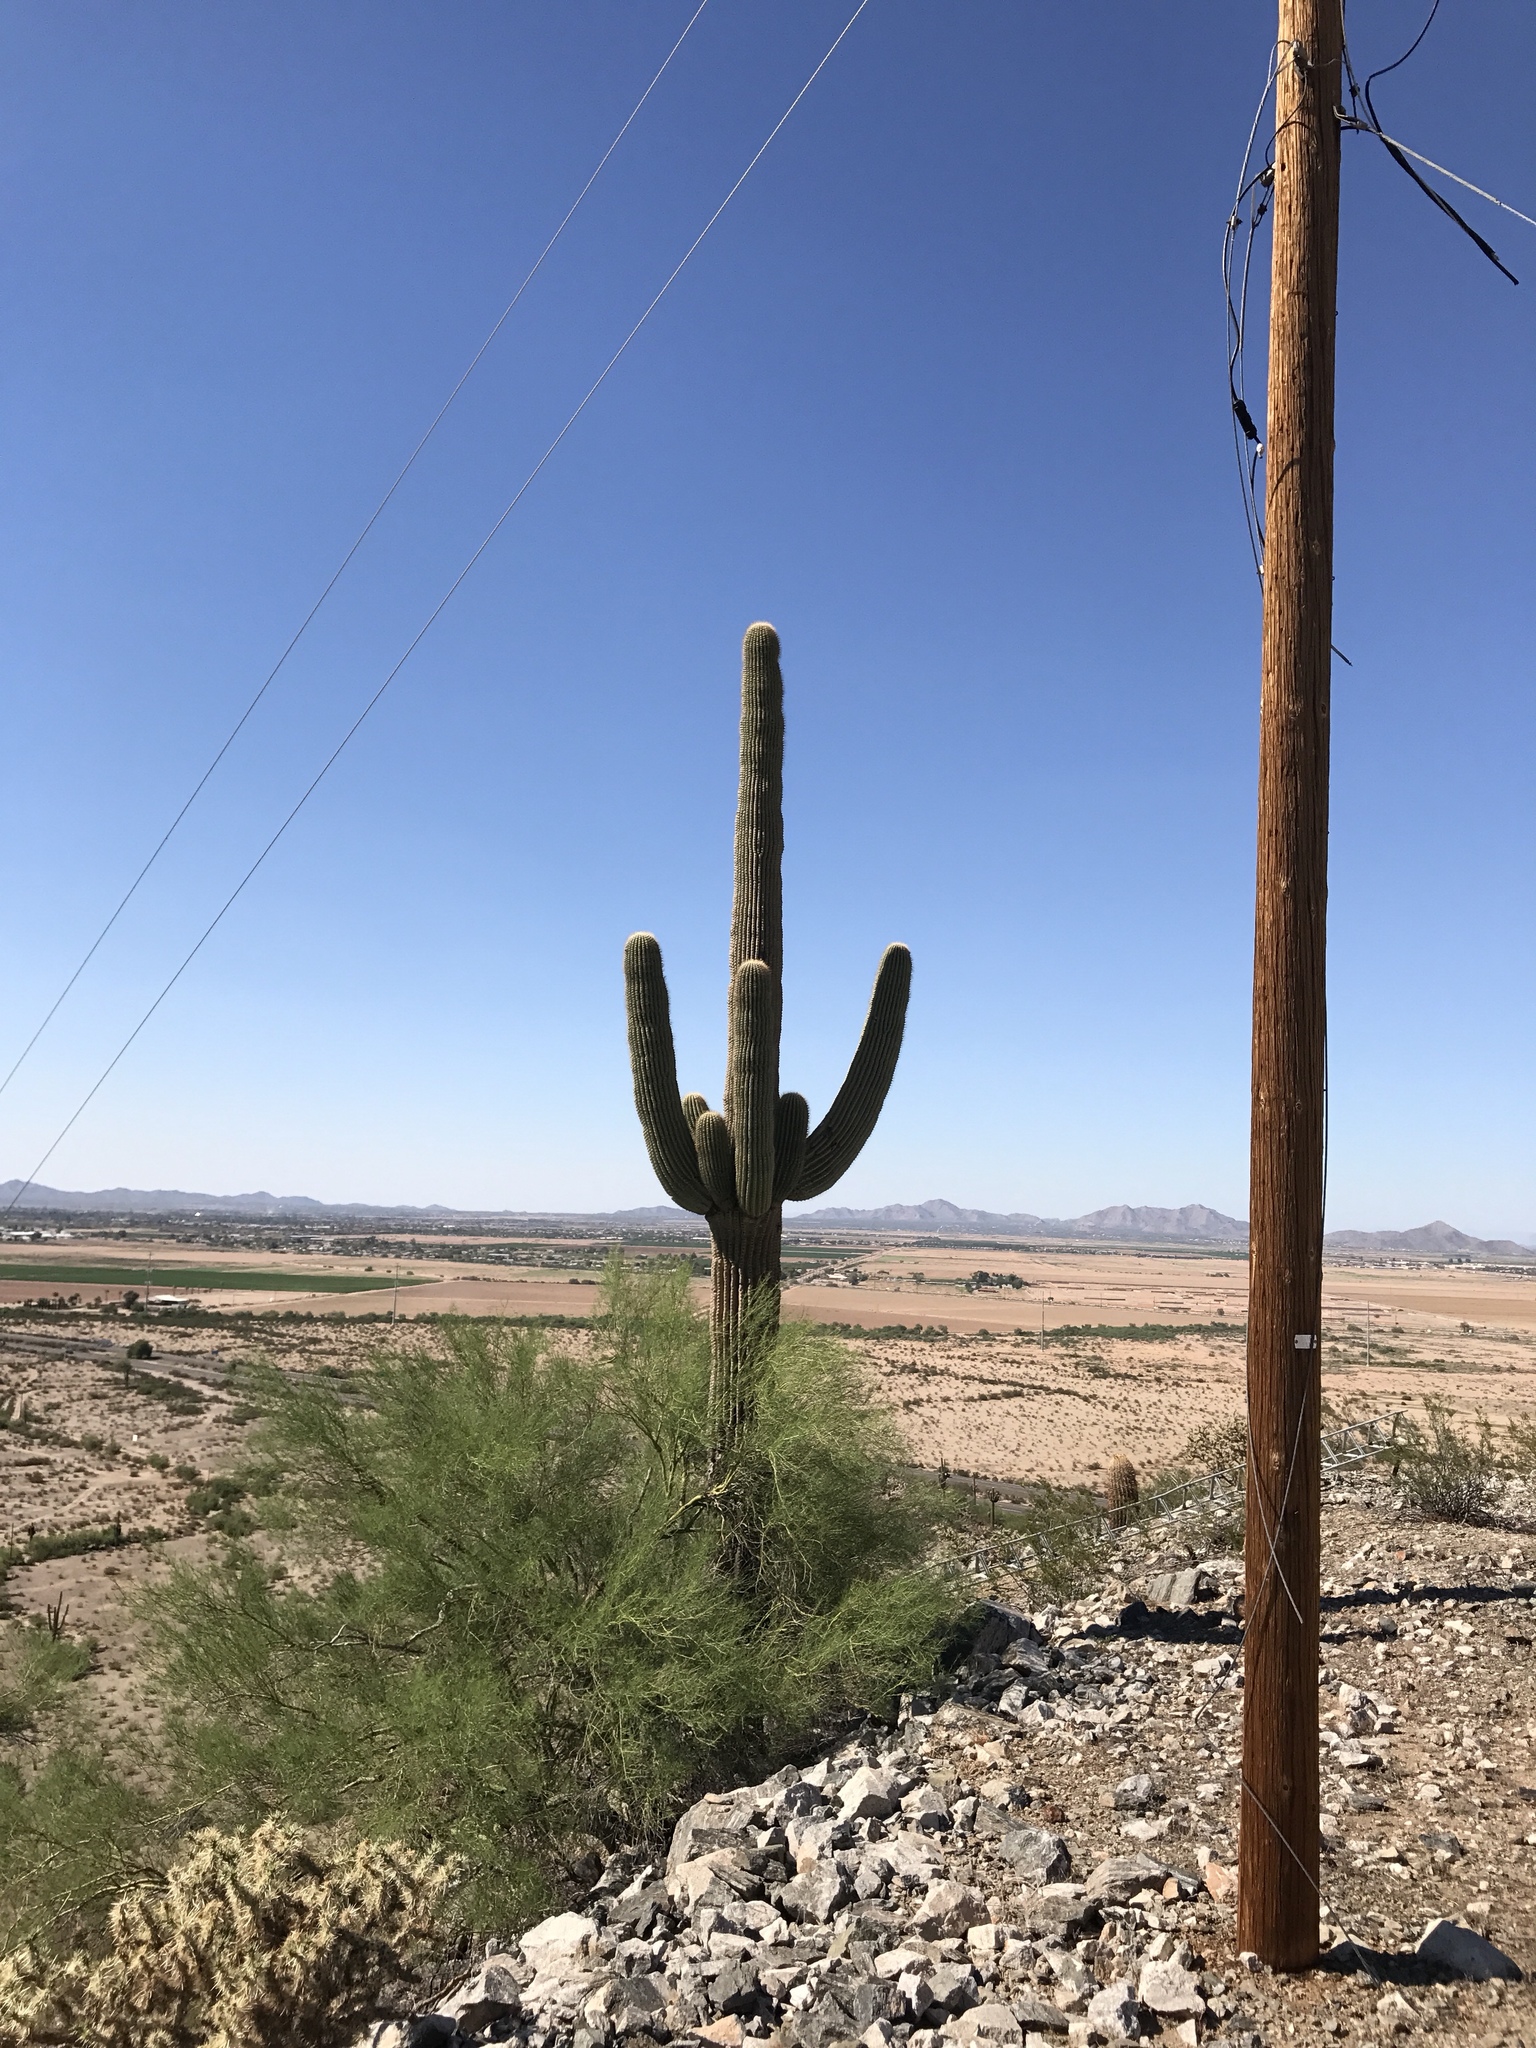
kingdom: Plantae
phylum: Tracheophyta
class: Magnoliopsida
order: Caryophyllales
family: Cactaceae
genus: Carnegiea
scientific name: Carnegiea gigantea
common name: Saguaro
